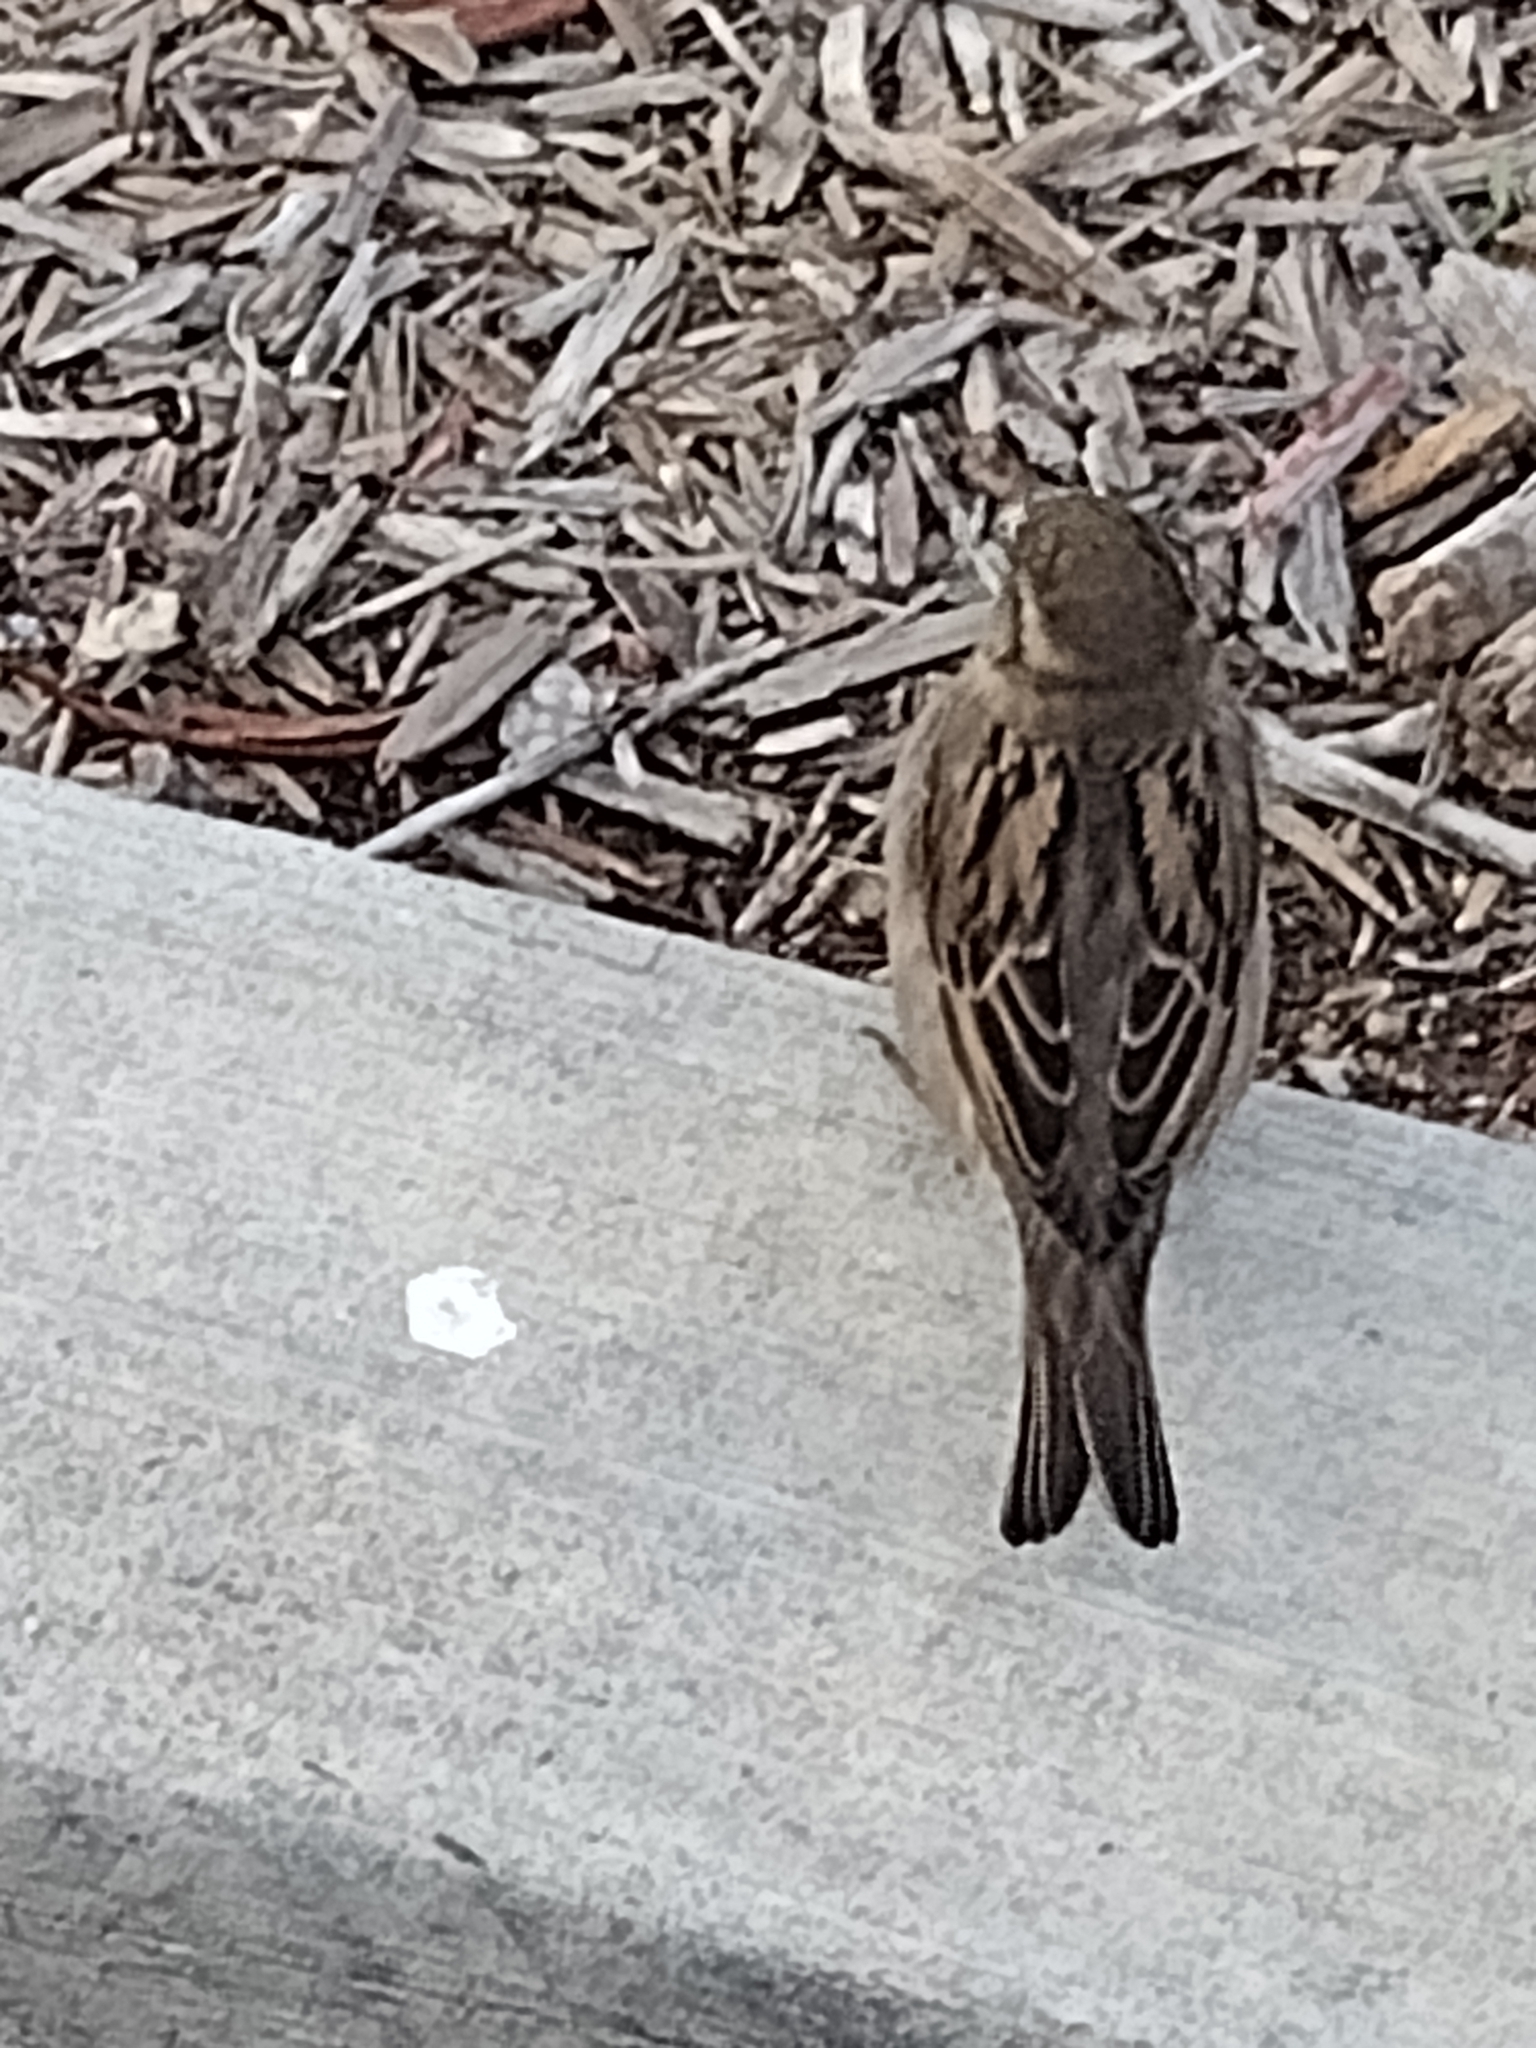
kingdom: Animalia
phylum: Chordata
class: Aves
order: Passeriformes
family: Passeridae
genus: Passer
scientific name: Passer domesticus
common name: House sparrow
